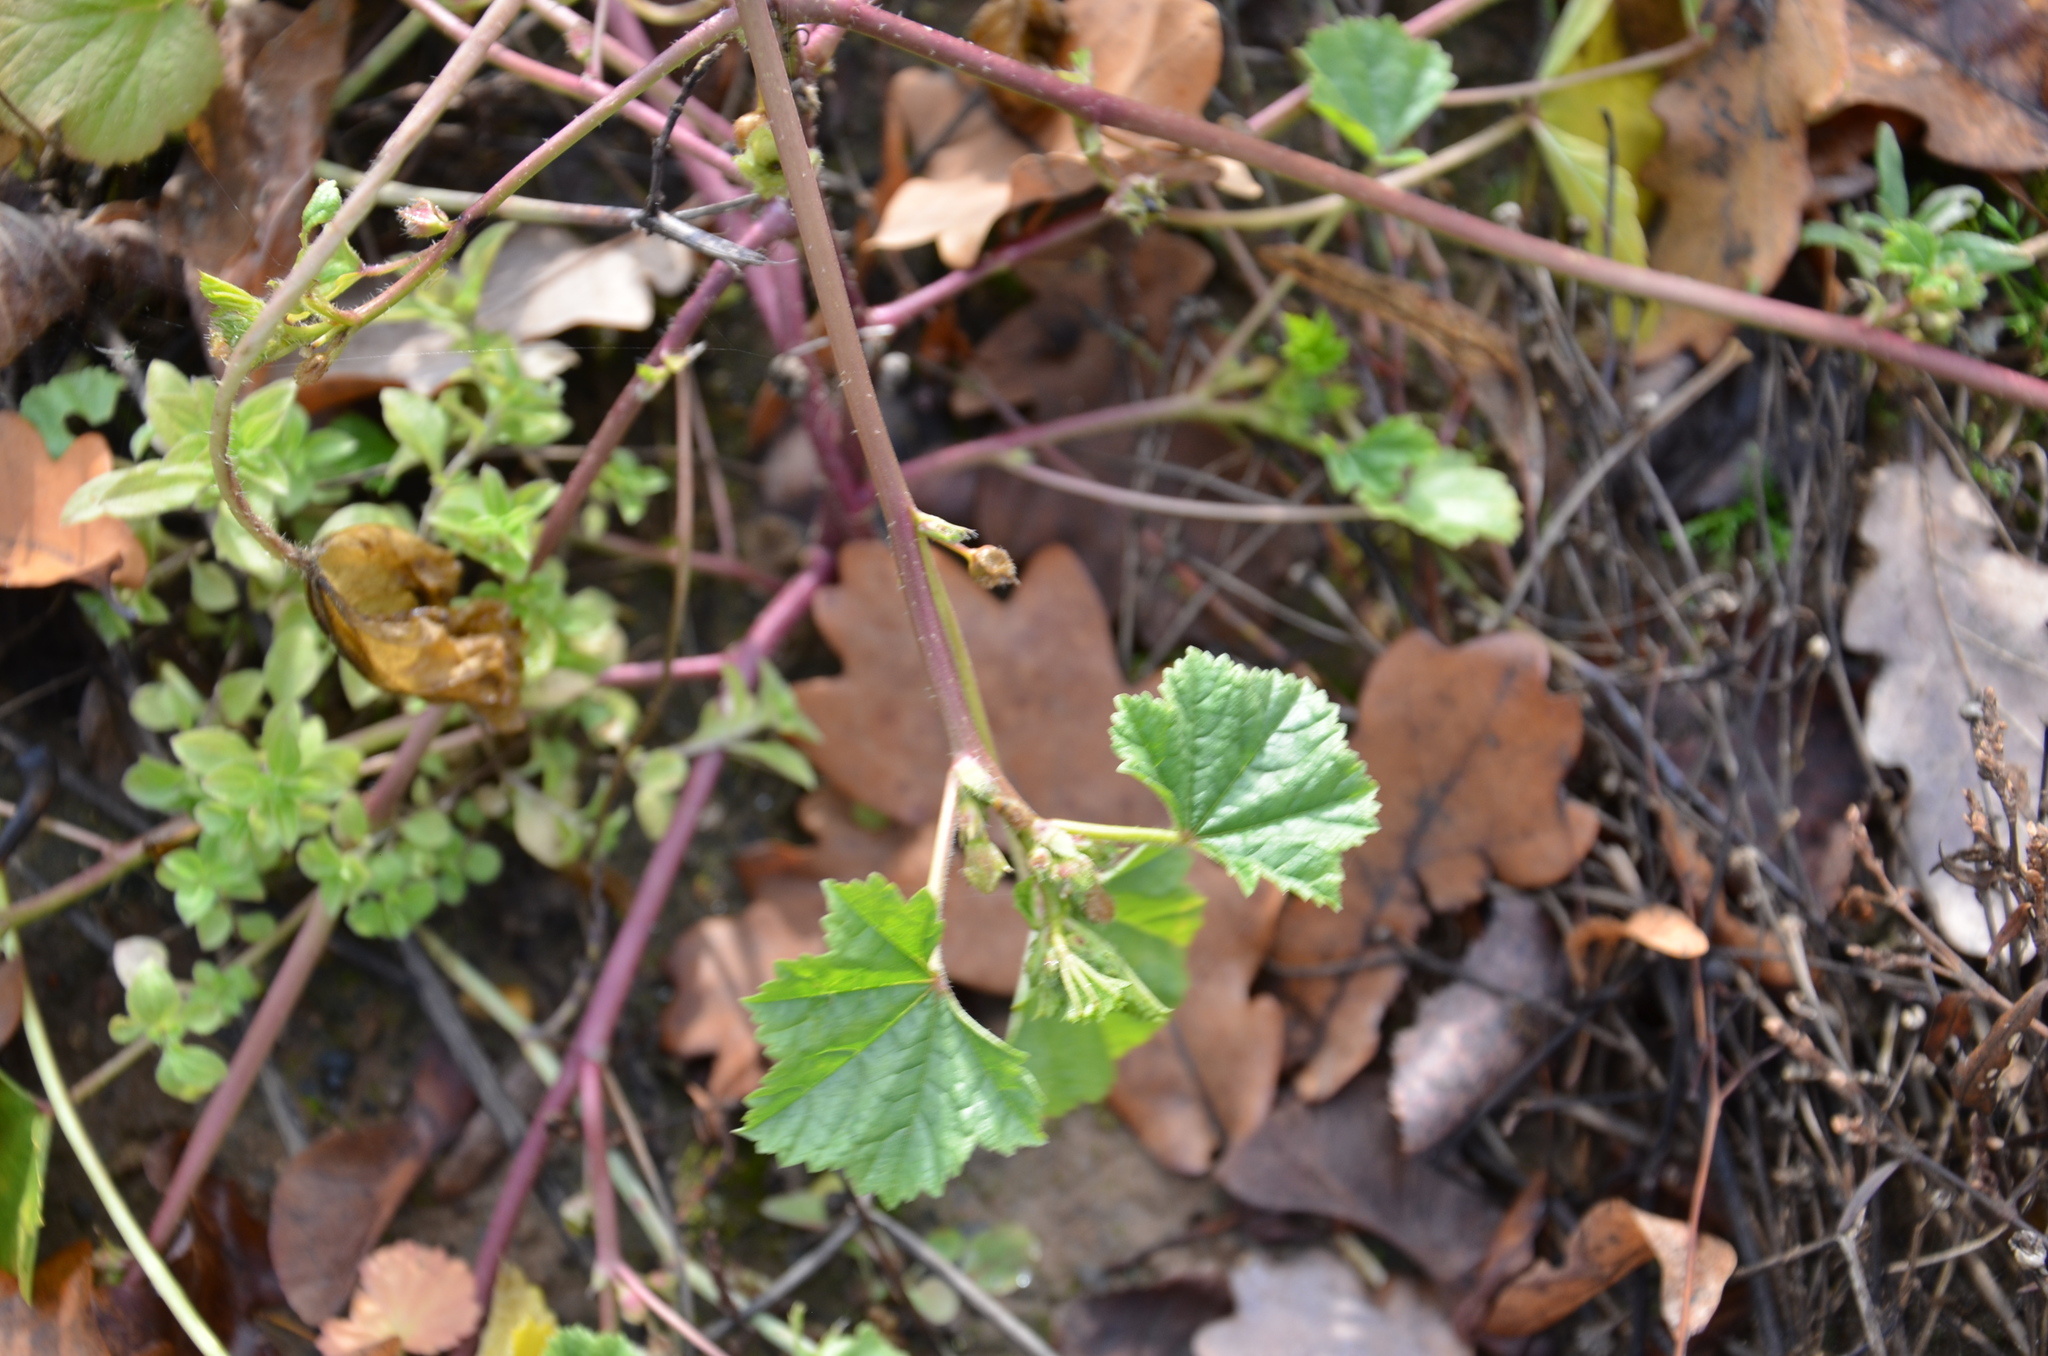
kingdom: Plantae
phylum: Tracheophyta
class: Magnoliopsida
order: Malvales
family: Malvaceae
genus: Malva
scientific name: Malva pusilla
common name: Small mallow
